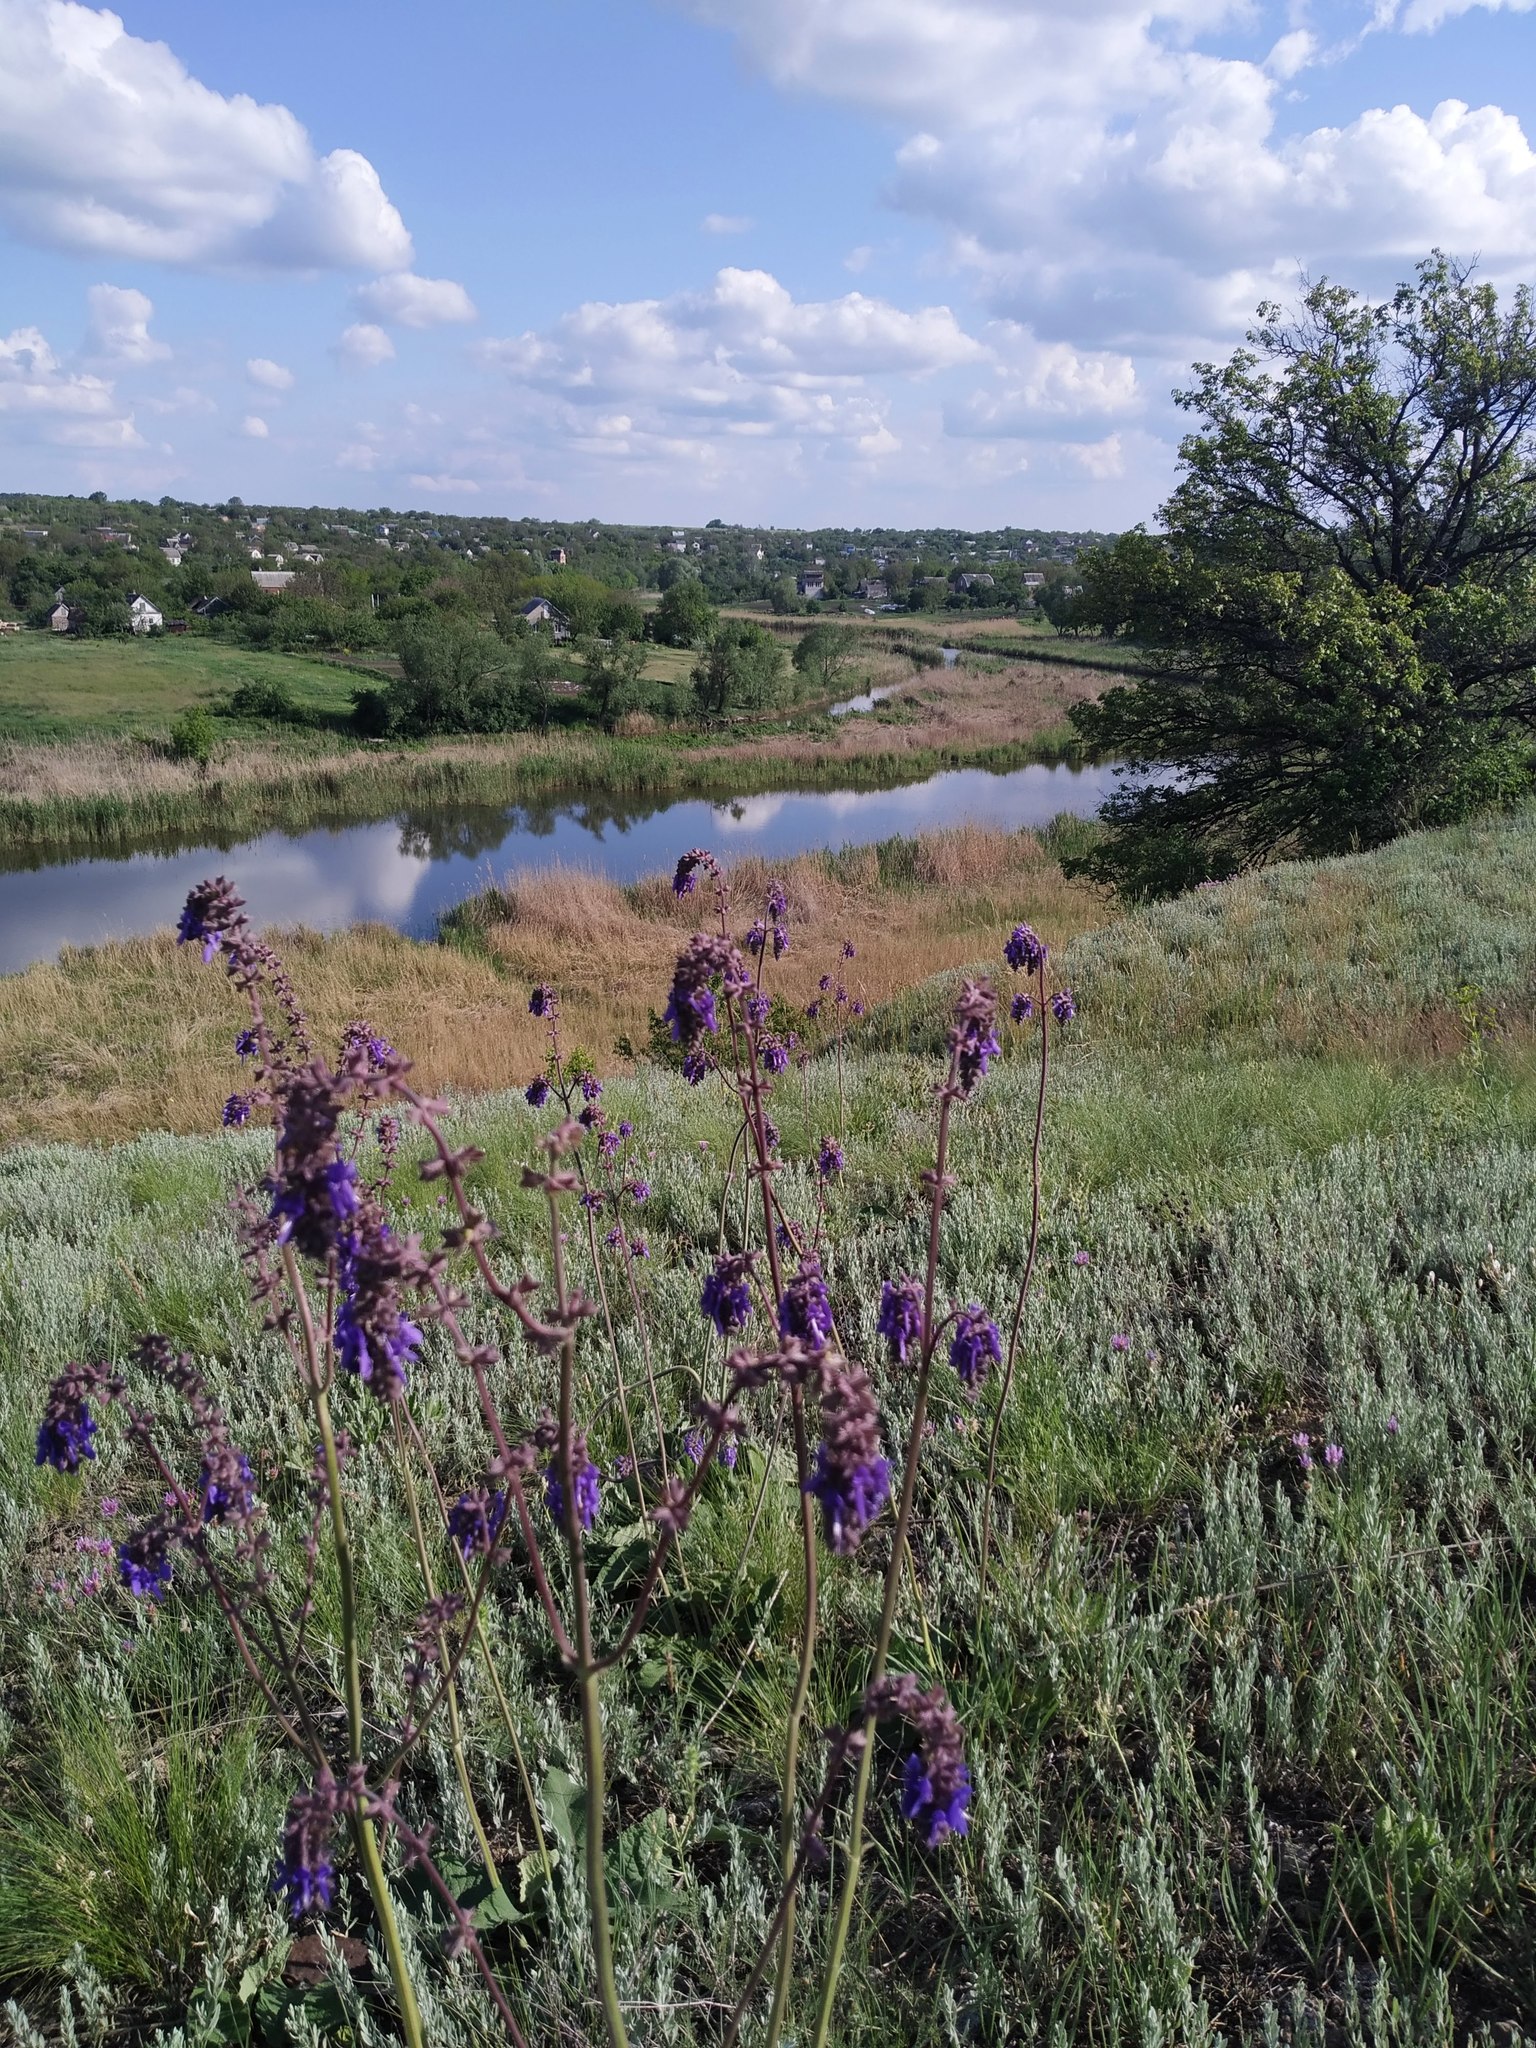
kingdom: Plantae
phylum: Tracheophyta
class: Magnoliopsida
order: Lamiales
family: Lamiaceae
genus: Salvia
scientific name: Salvia nutans
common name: Nodding sage
